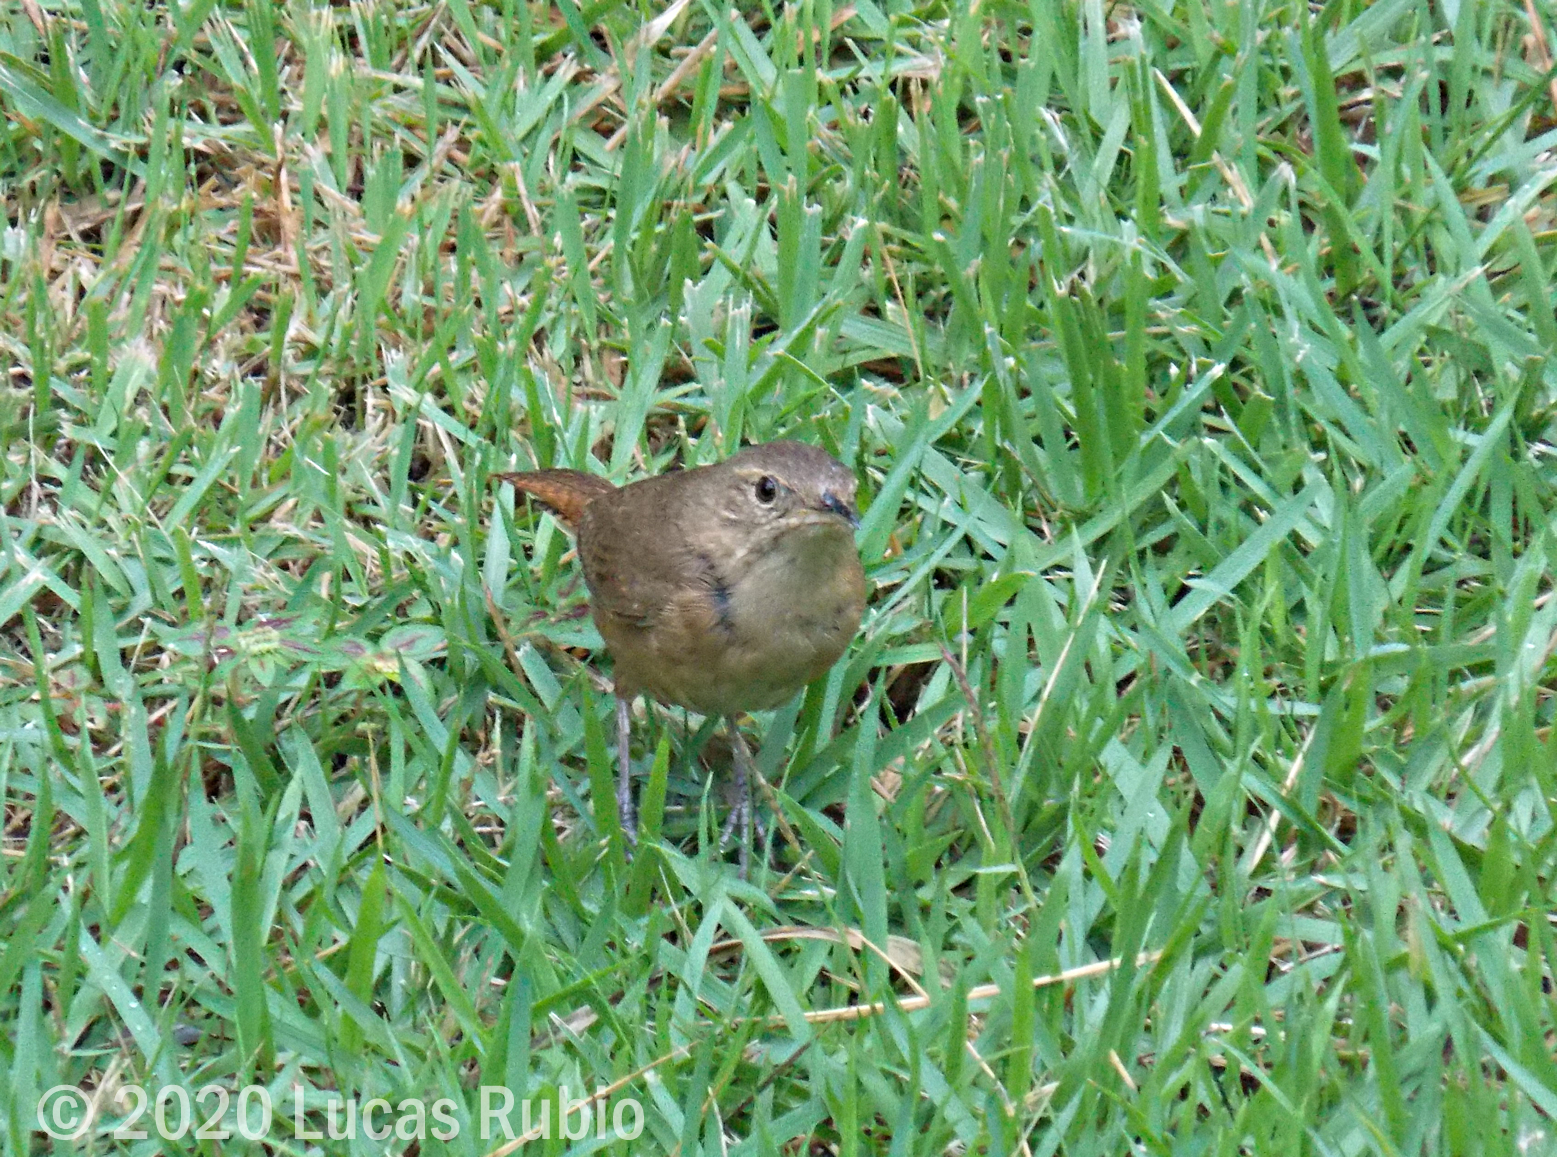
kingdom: Animalia
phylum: Chordata
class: Aves
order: Passeriformes
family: Troglodytidae
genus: Troglodytes
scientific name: Troglodytes aedon
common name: House wren
